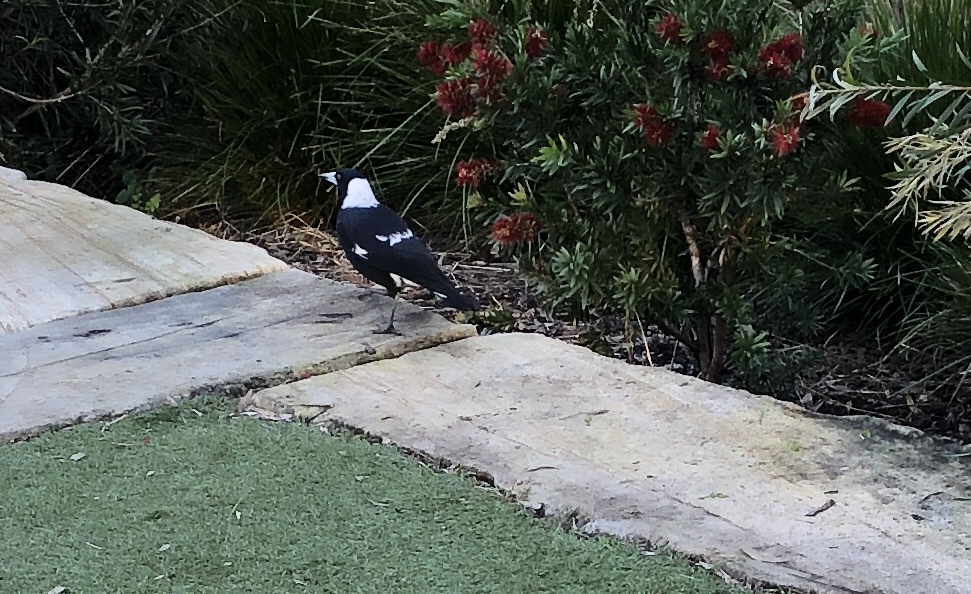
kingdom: Animalia
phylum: Chordata
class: Aves
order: Passeriformes
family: Cracticidae
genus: Gymnorhina
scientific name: Gymnorhina tibicen
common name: Australian magpie
